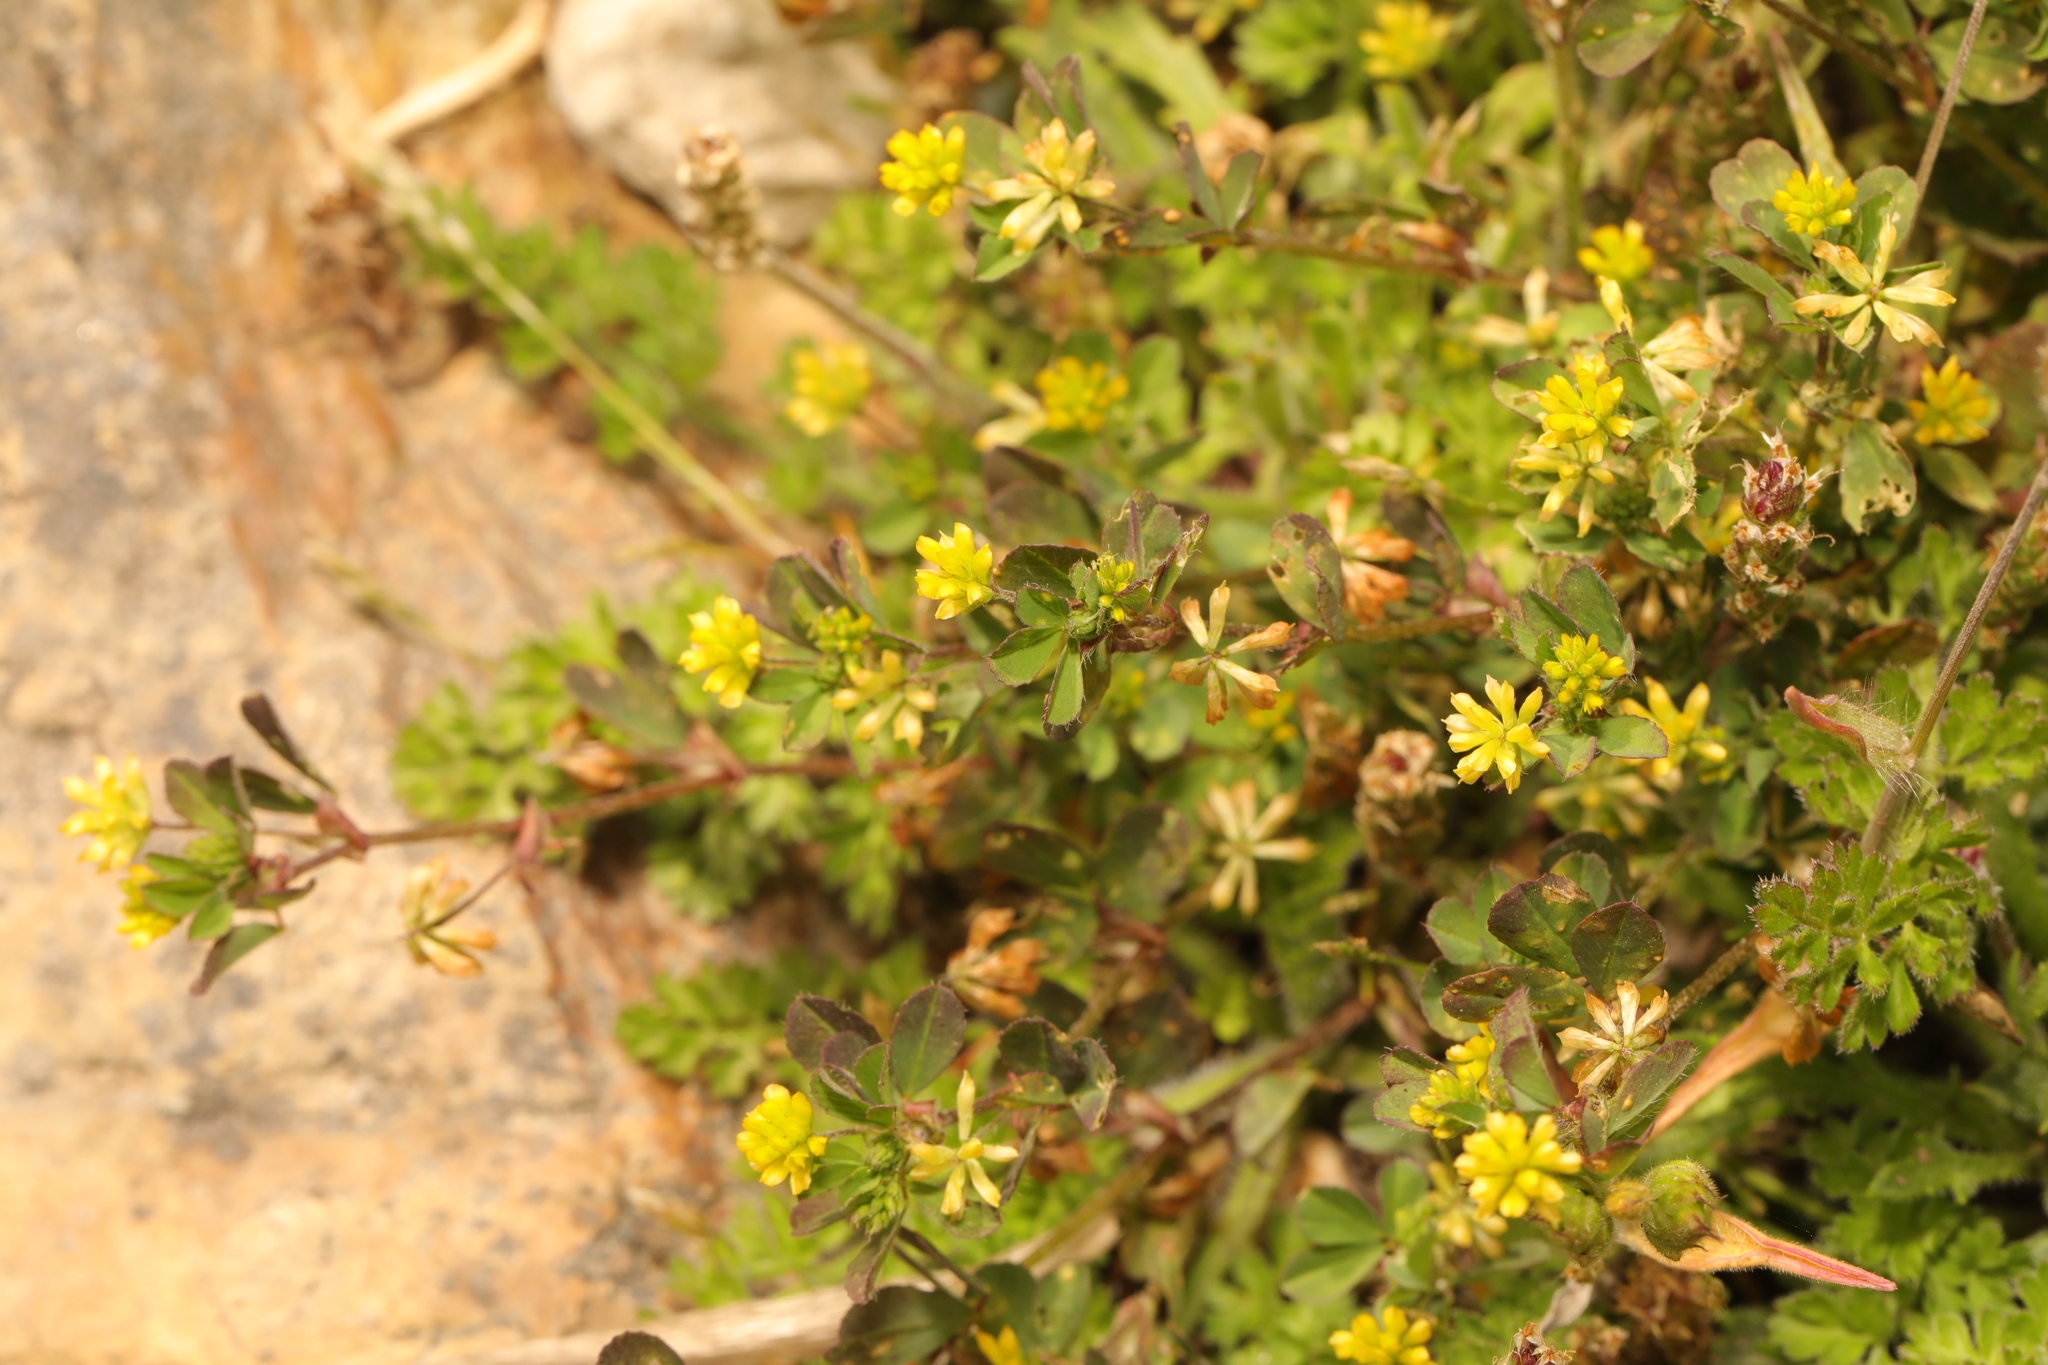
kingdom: Plantae
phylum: Tracheophyta
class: Magnoliopsida
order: Fabales
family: Fabaceae
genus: Trifolium
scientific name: Trifolium dubium
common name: Suckling clover
